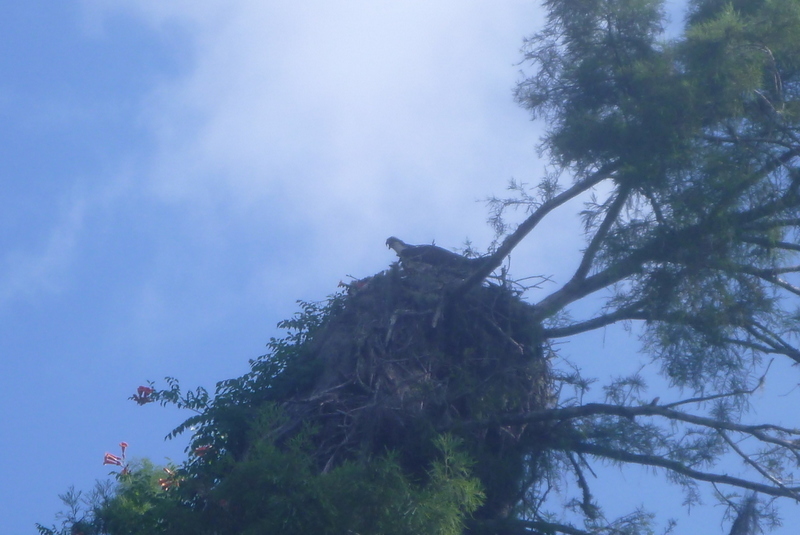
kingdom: Animalia
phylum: Chordata
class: Aves
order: Accipitriformes
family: Pandionidae
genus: Pandion
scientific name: Pandion haliaetus
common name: Osprey
